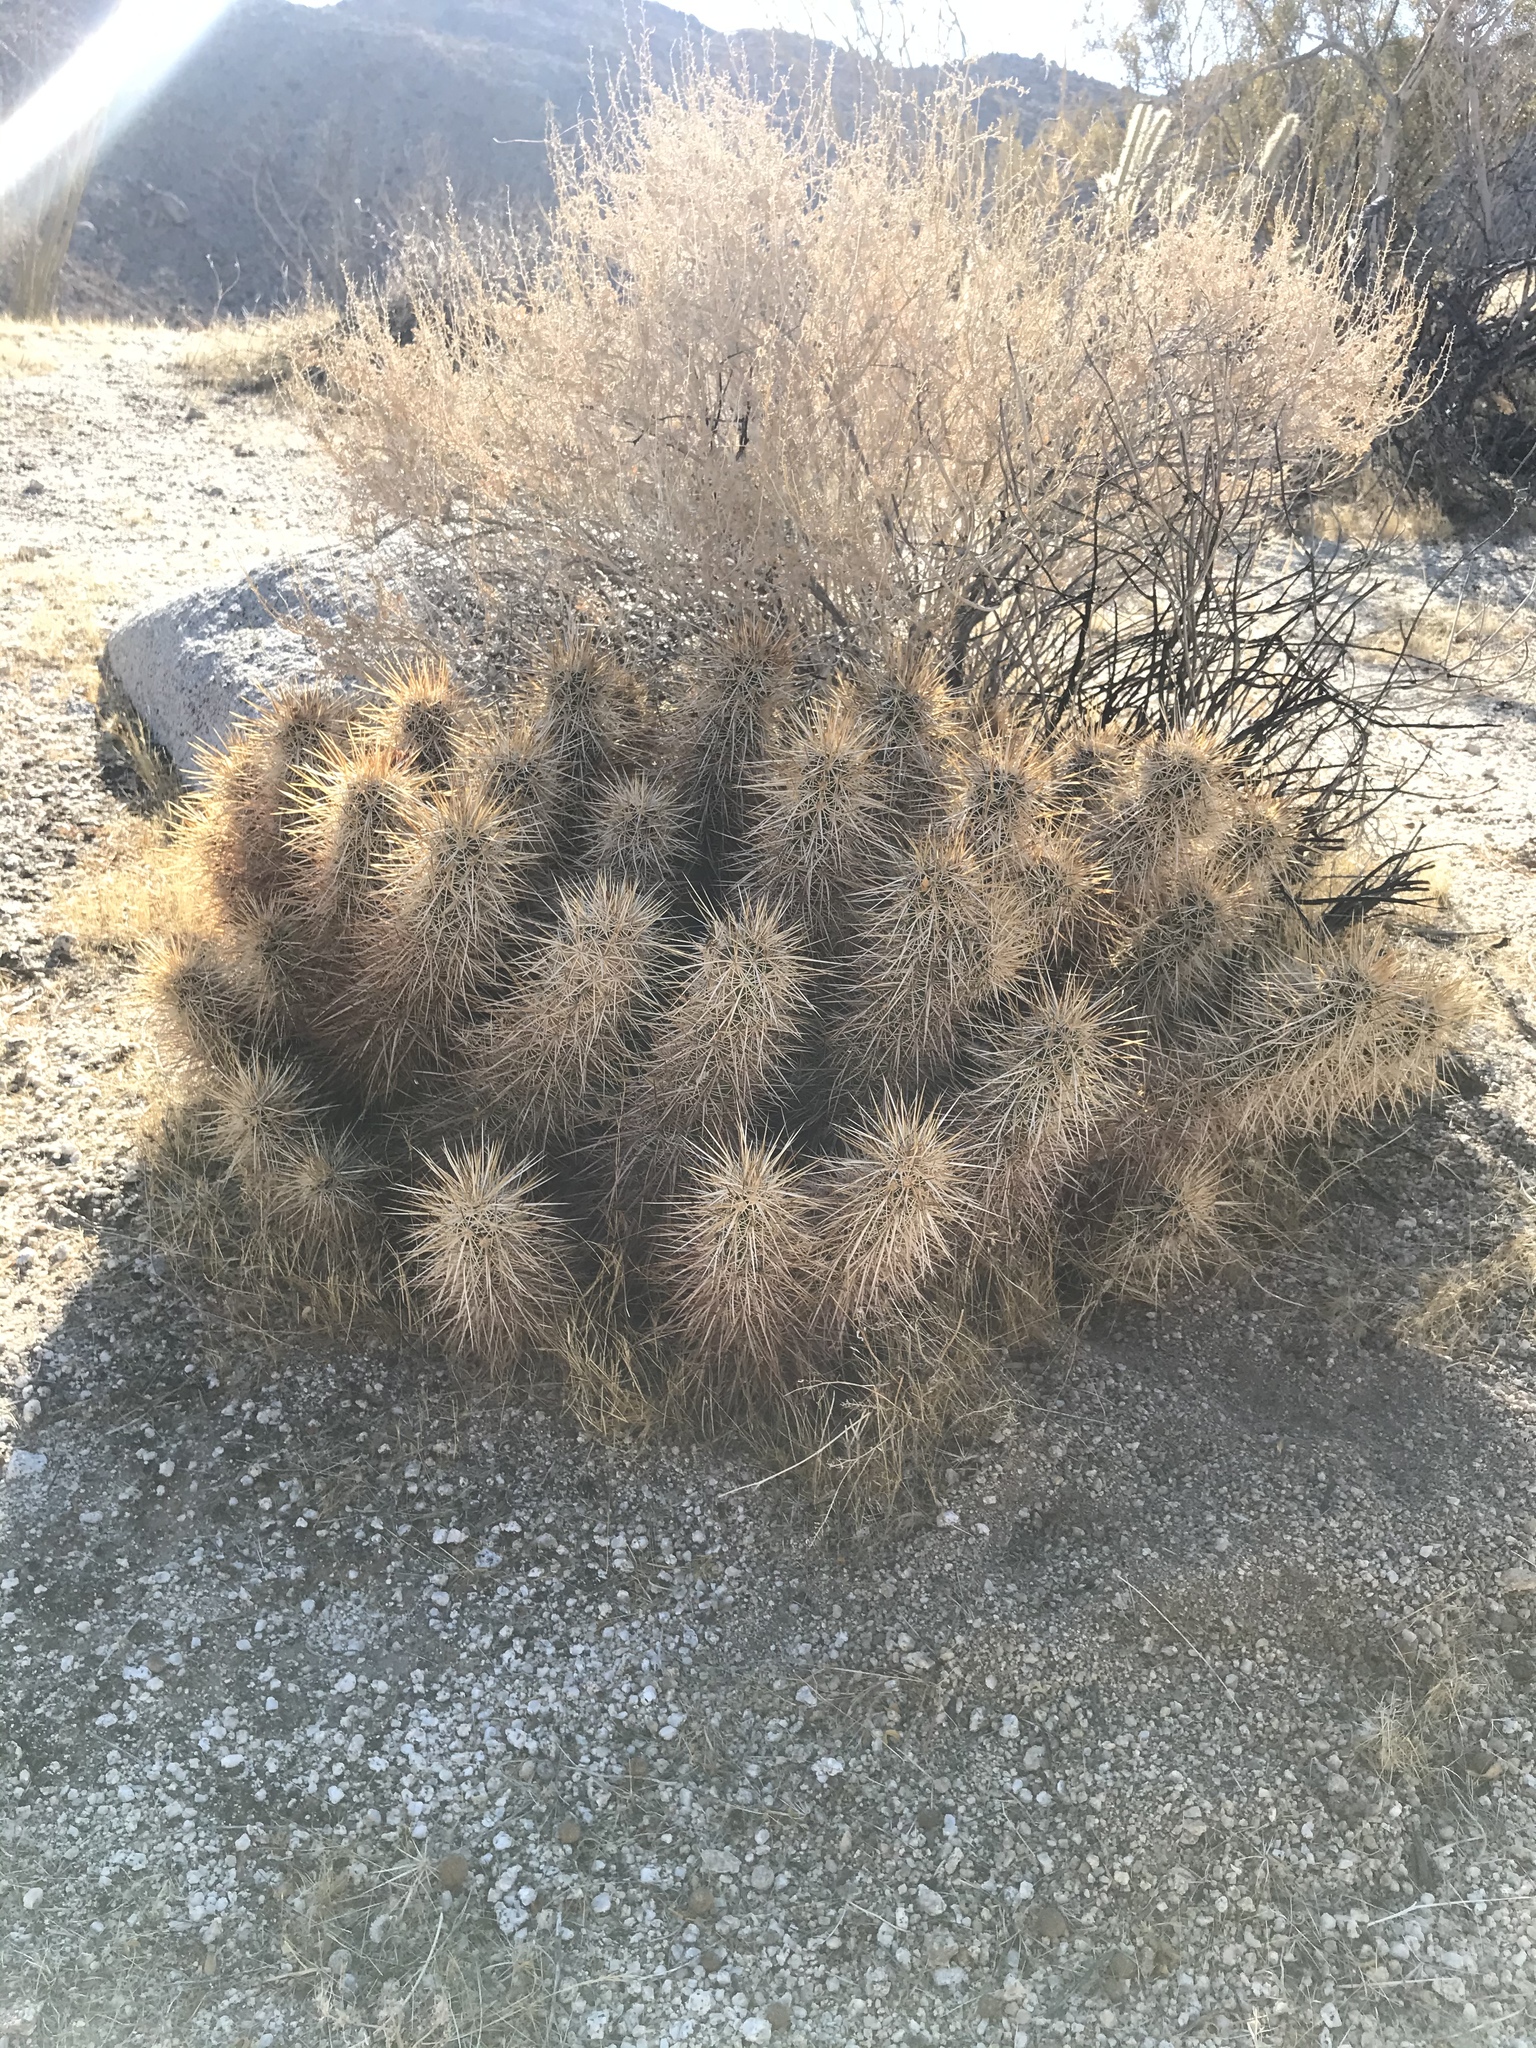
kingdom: Plantae
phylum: Tracheophyta
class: Magnoliopsida
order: Caryophyllales
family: Cactaceae
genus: Echinocereus
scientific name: Echinocereus engelmannii
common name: Engelmann's hedgehog cactus
